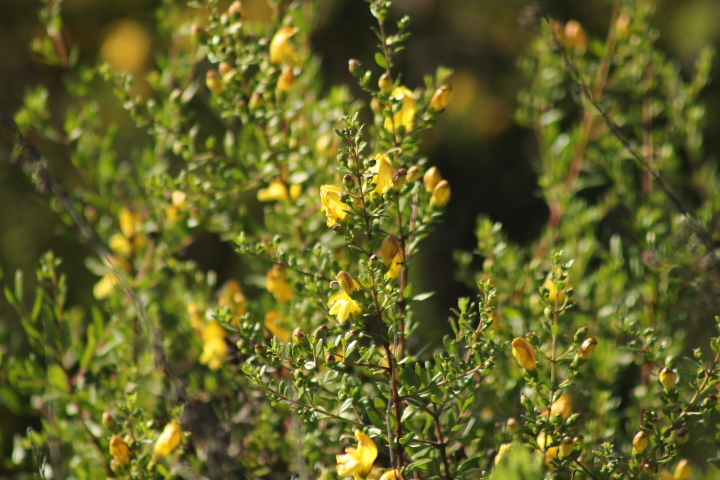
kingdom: Plantae
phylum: Tracheophyta
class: Magnoliopsida
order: Lamiales
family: Plantaginaceae
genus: Keckiella
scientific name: Keckiella antirrhinoides
